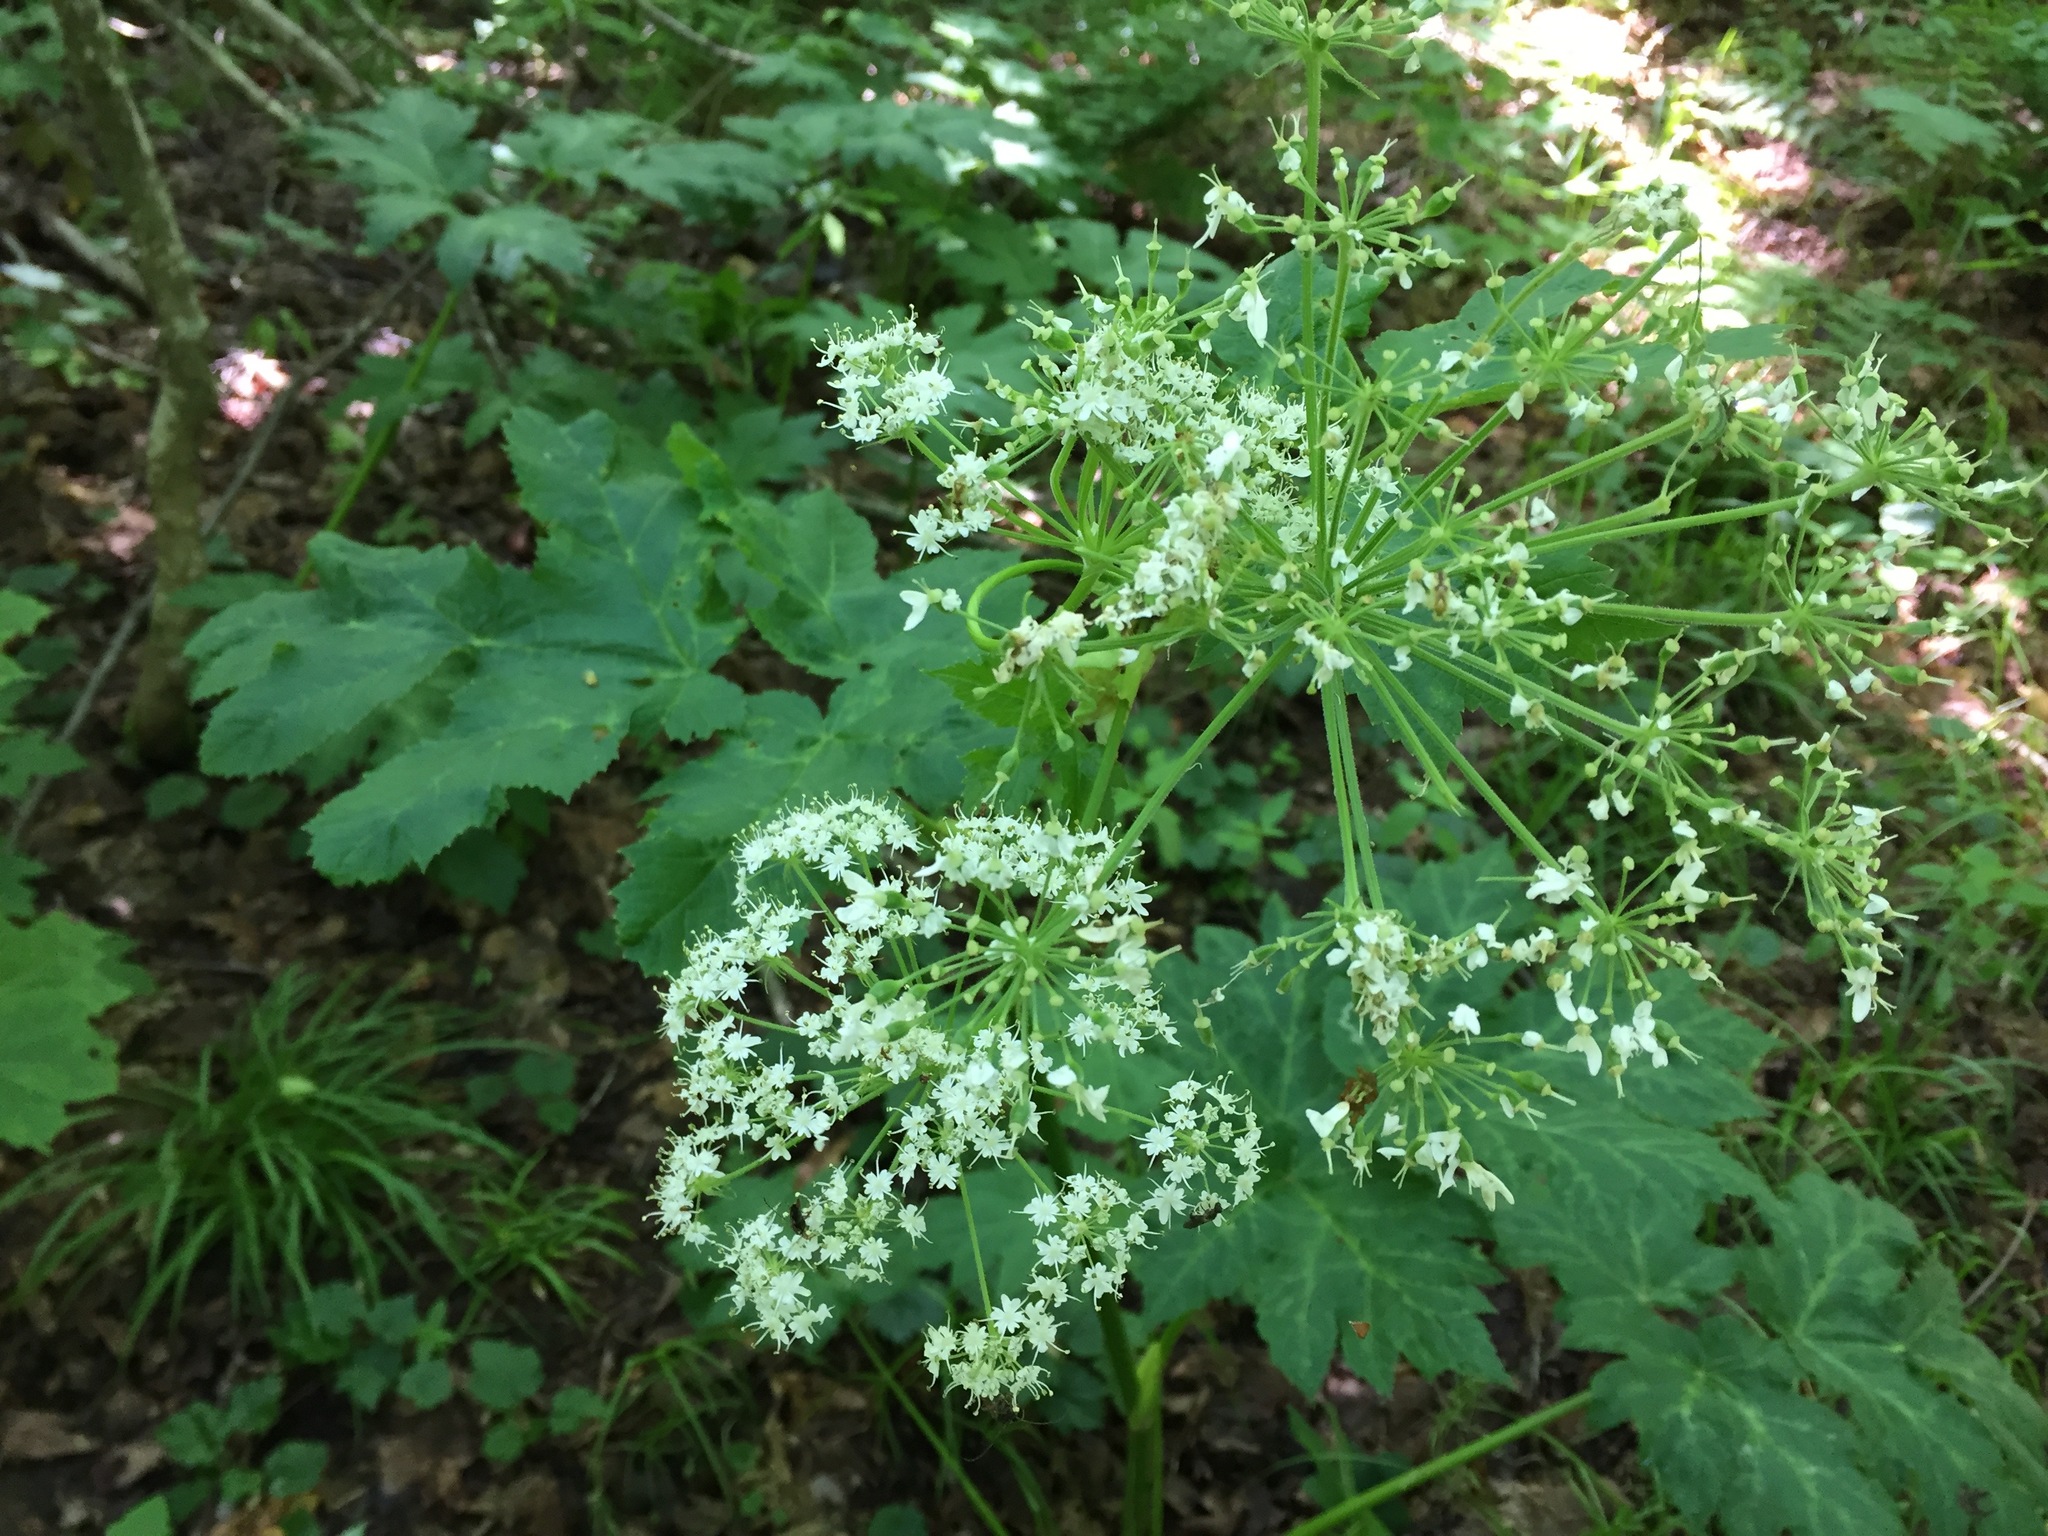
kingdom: Plantae
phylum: Tracheophyta
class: Magnoliopsida
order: Apiales
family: Apiaceae
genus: Heracleum
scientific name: Heracleum maximum
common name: American cow parsnip
